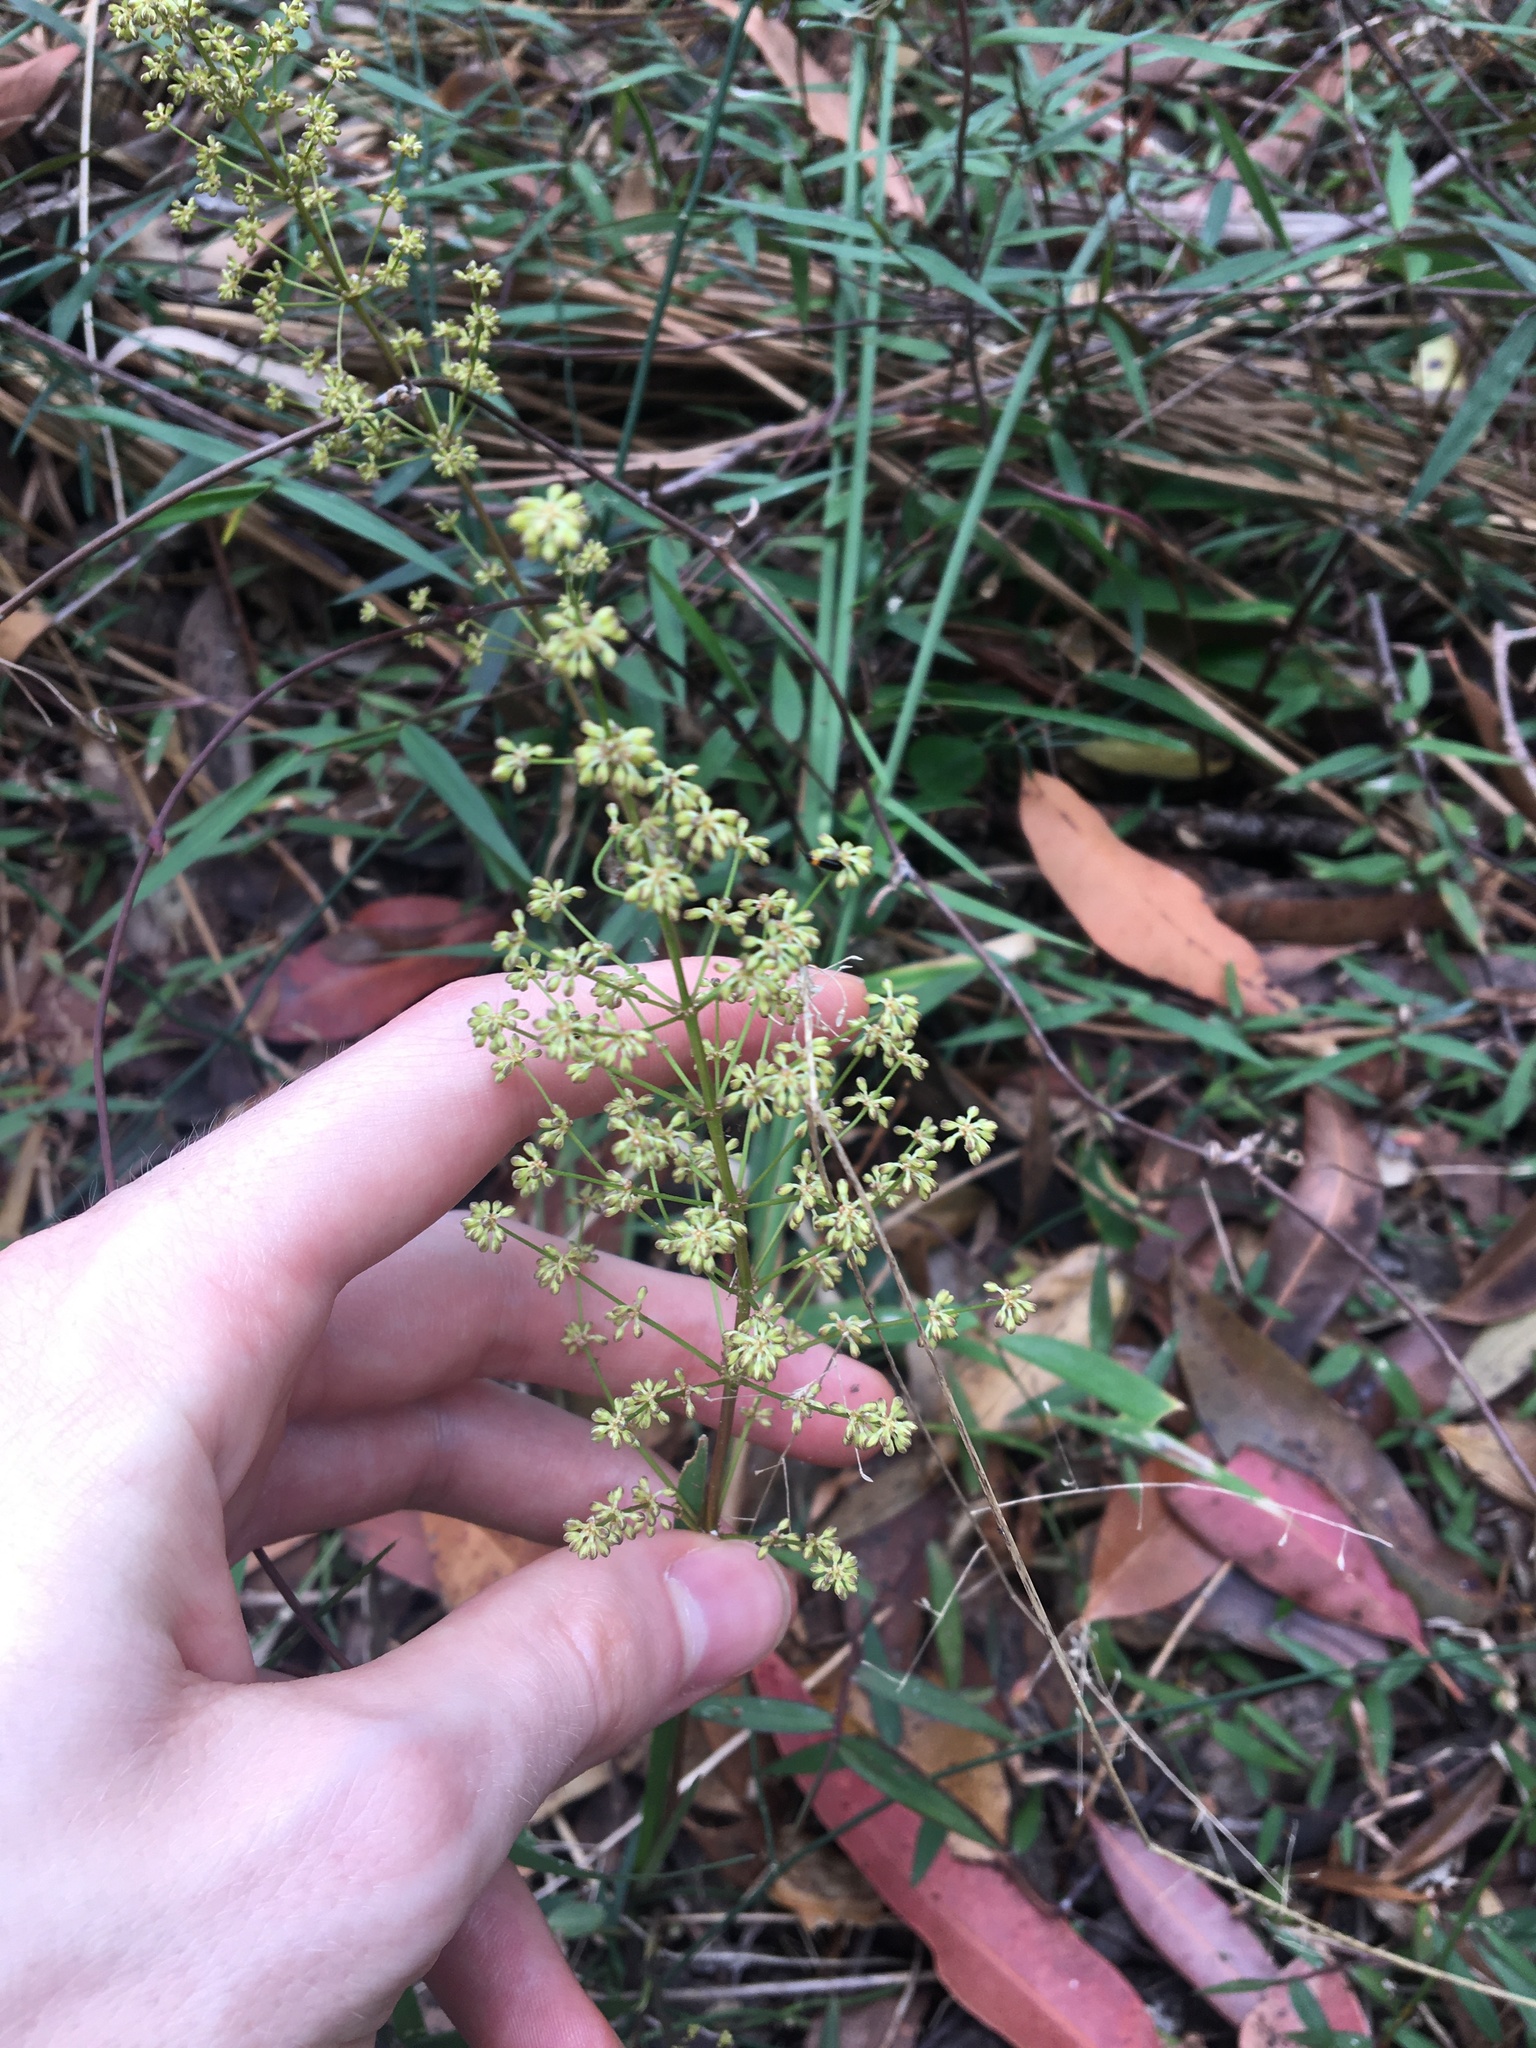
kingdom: Plantae
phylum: Tracheophyta
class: Liliopsida
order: Asparagales
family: Asparagaceae
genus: Lomandra
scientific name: Lomandra multiflora
